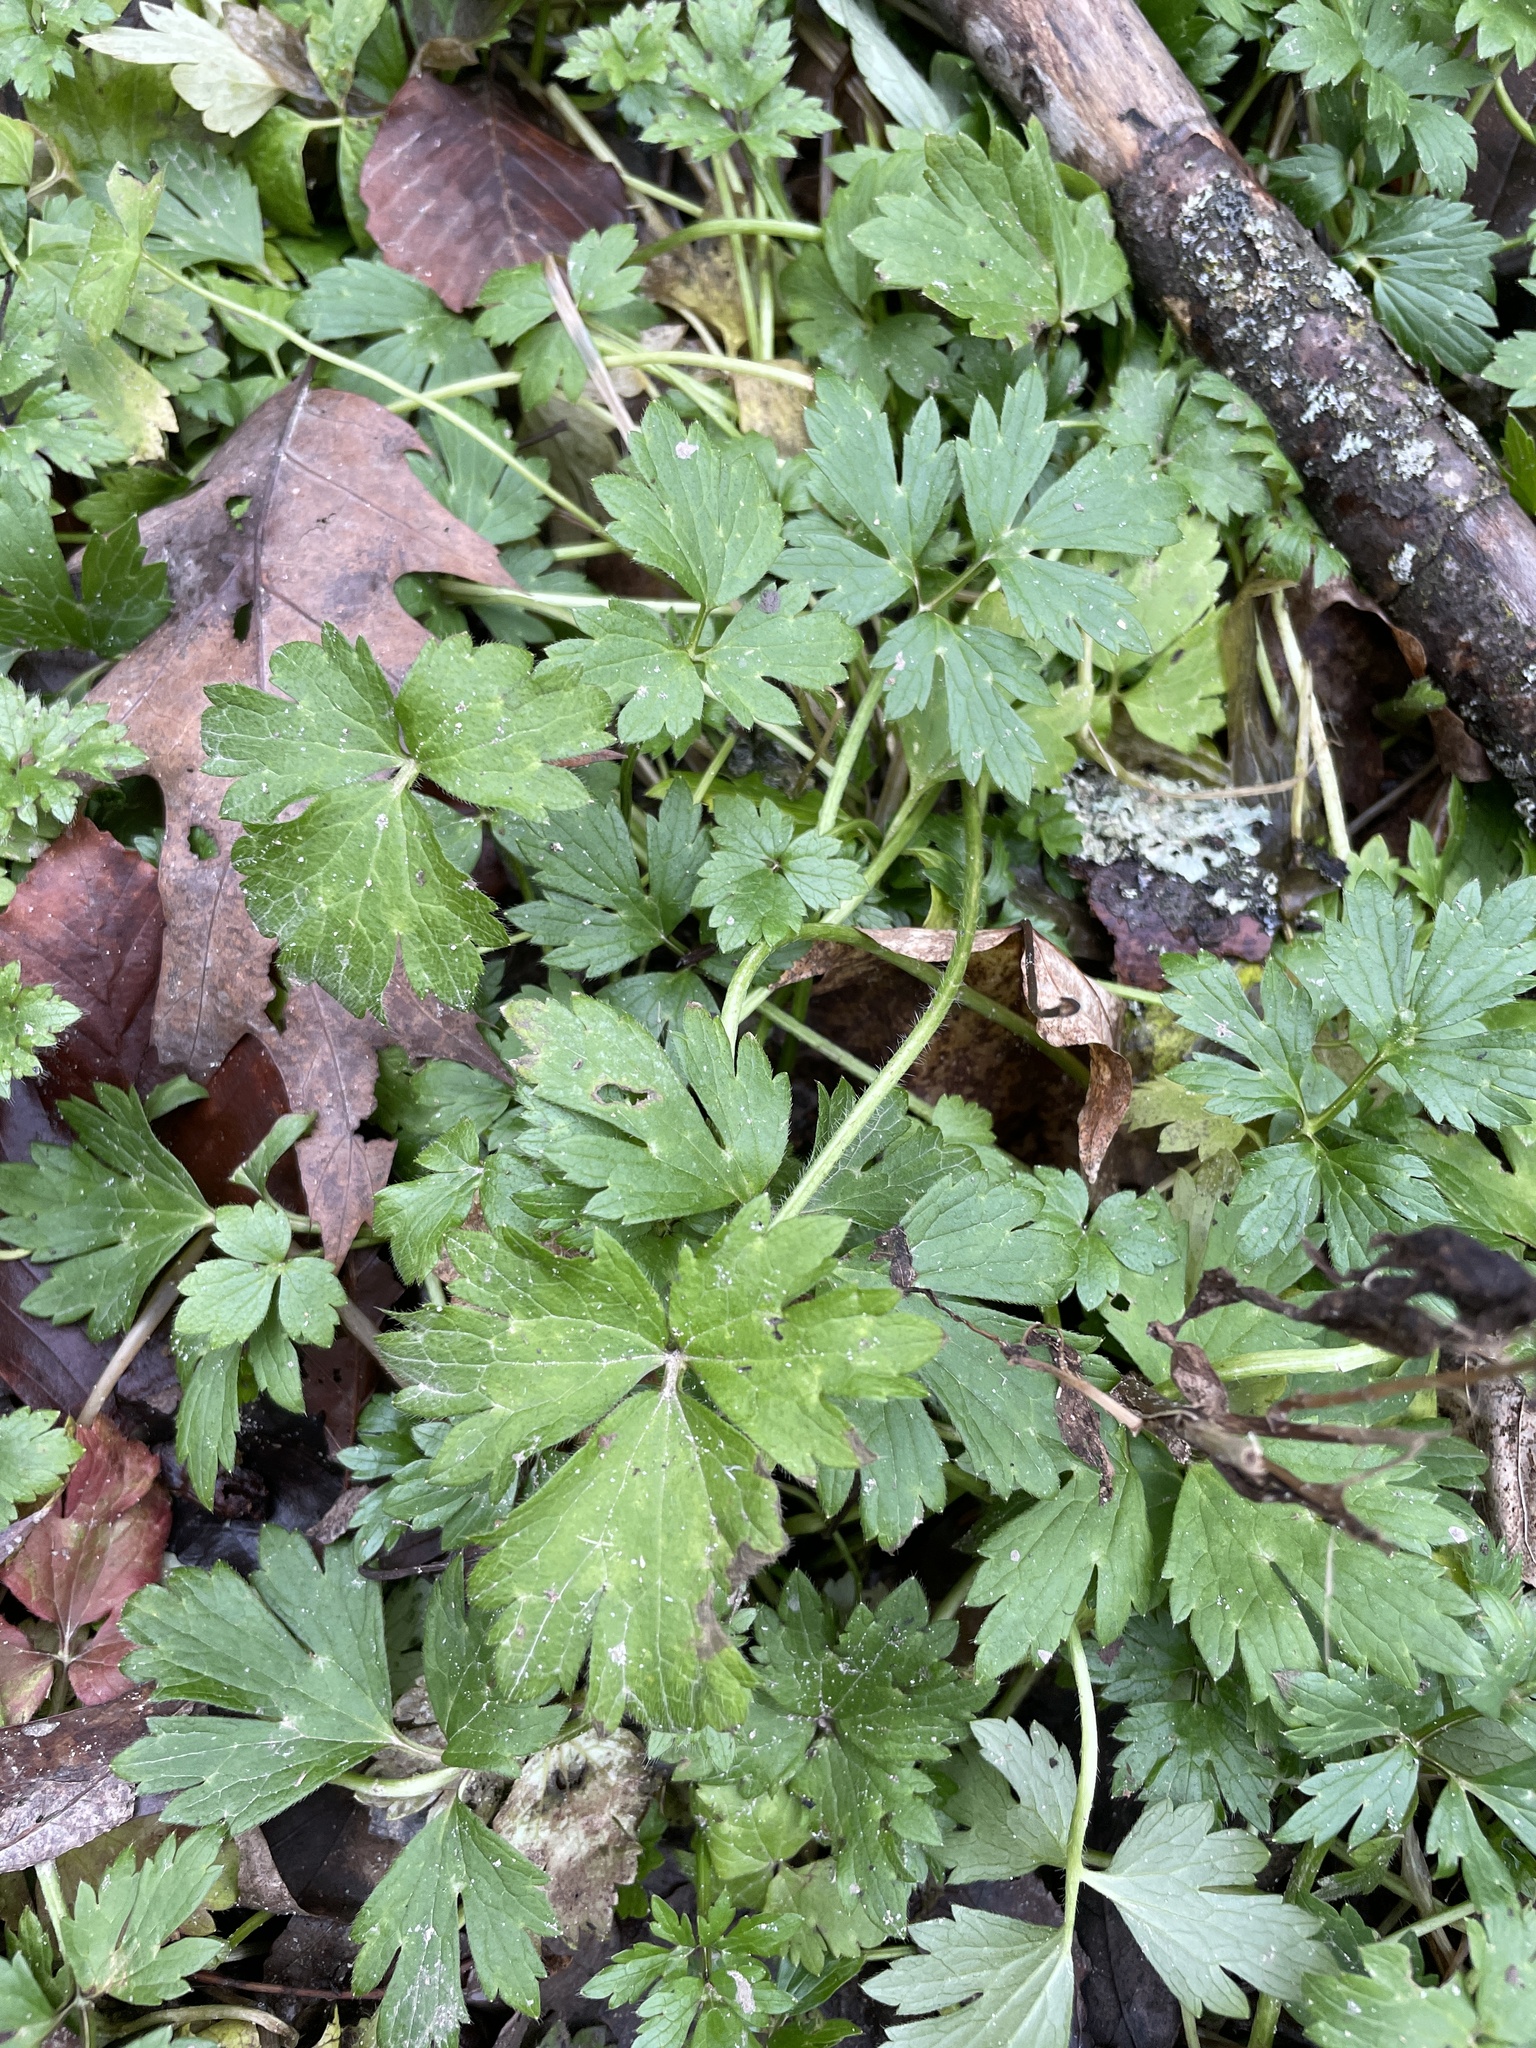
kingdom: Plantae
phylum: Tracheophyta
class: Magnoliopsida
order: Ranunculales
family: Ranunculaceae
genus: Ranunculus
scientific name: Ranunculus repens
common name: Creeping buttercup
